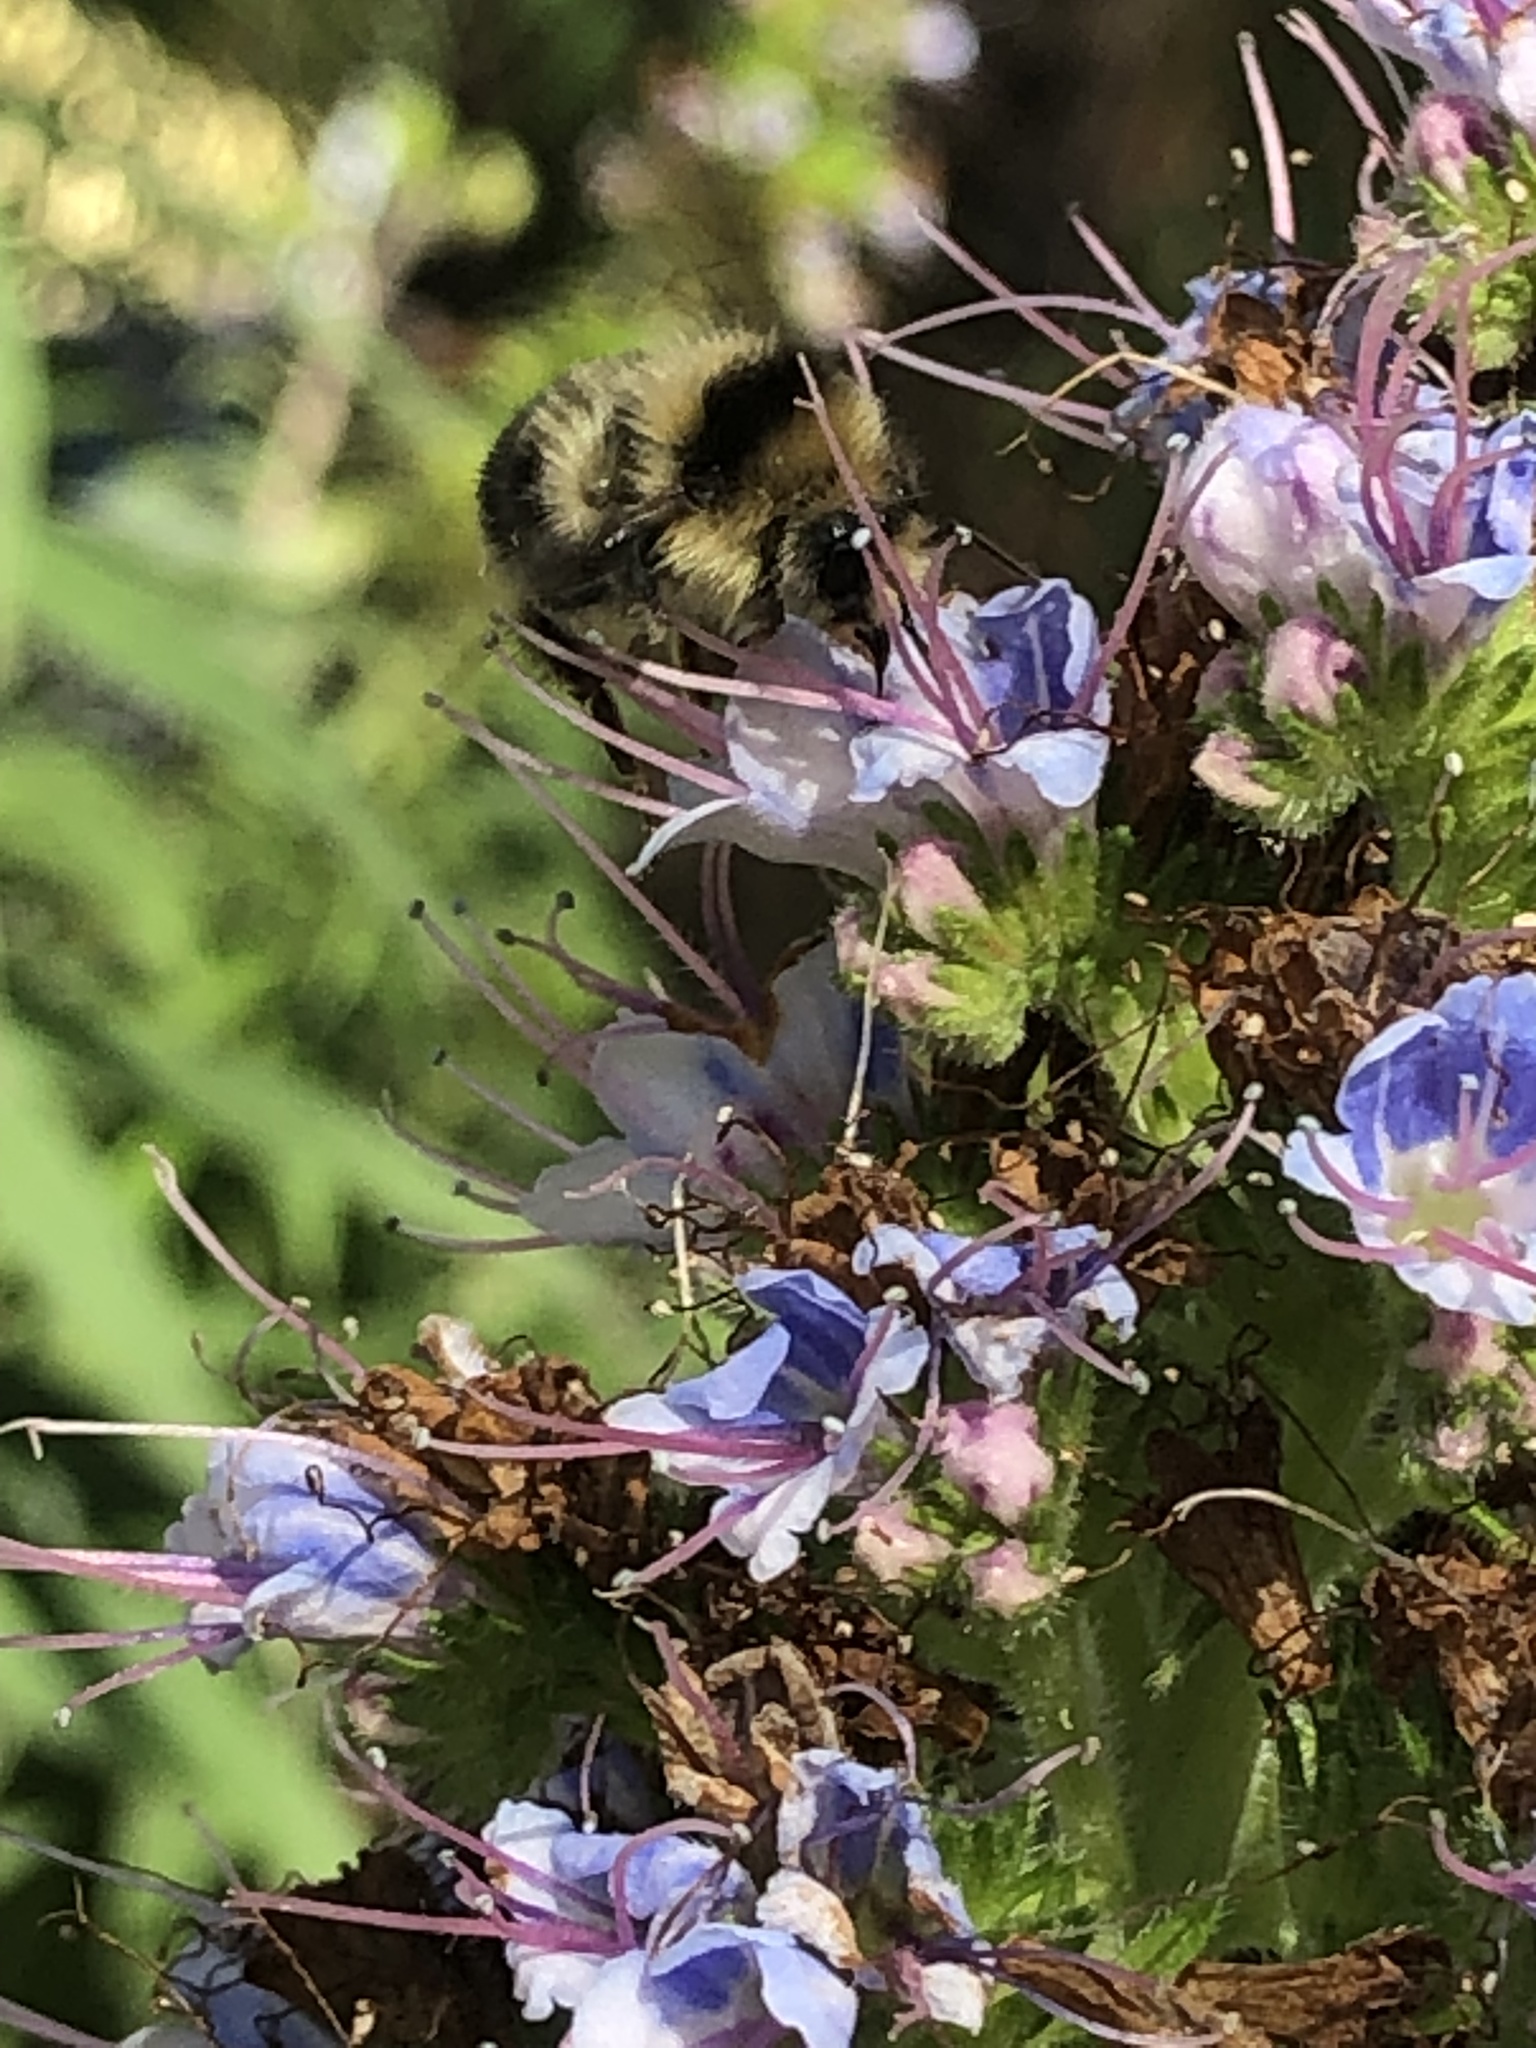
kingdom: Animalia
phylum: Arthropoda
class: Insecta
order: Hymenoptera
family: Apidae
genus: Bombus
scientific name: Bombus melanopygus
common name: Black tail bumble bee
